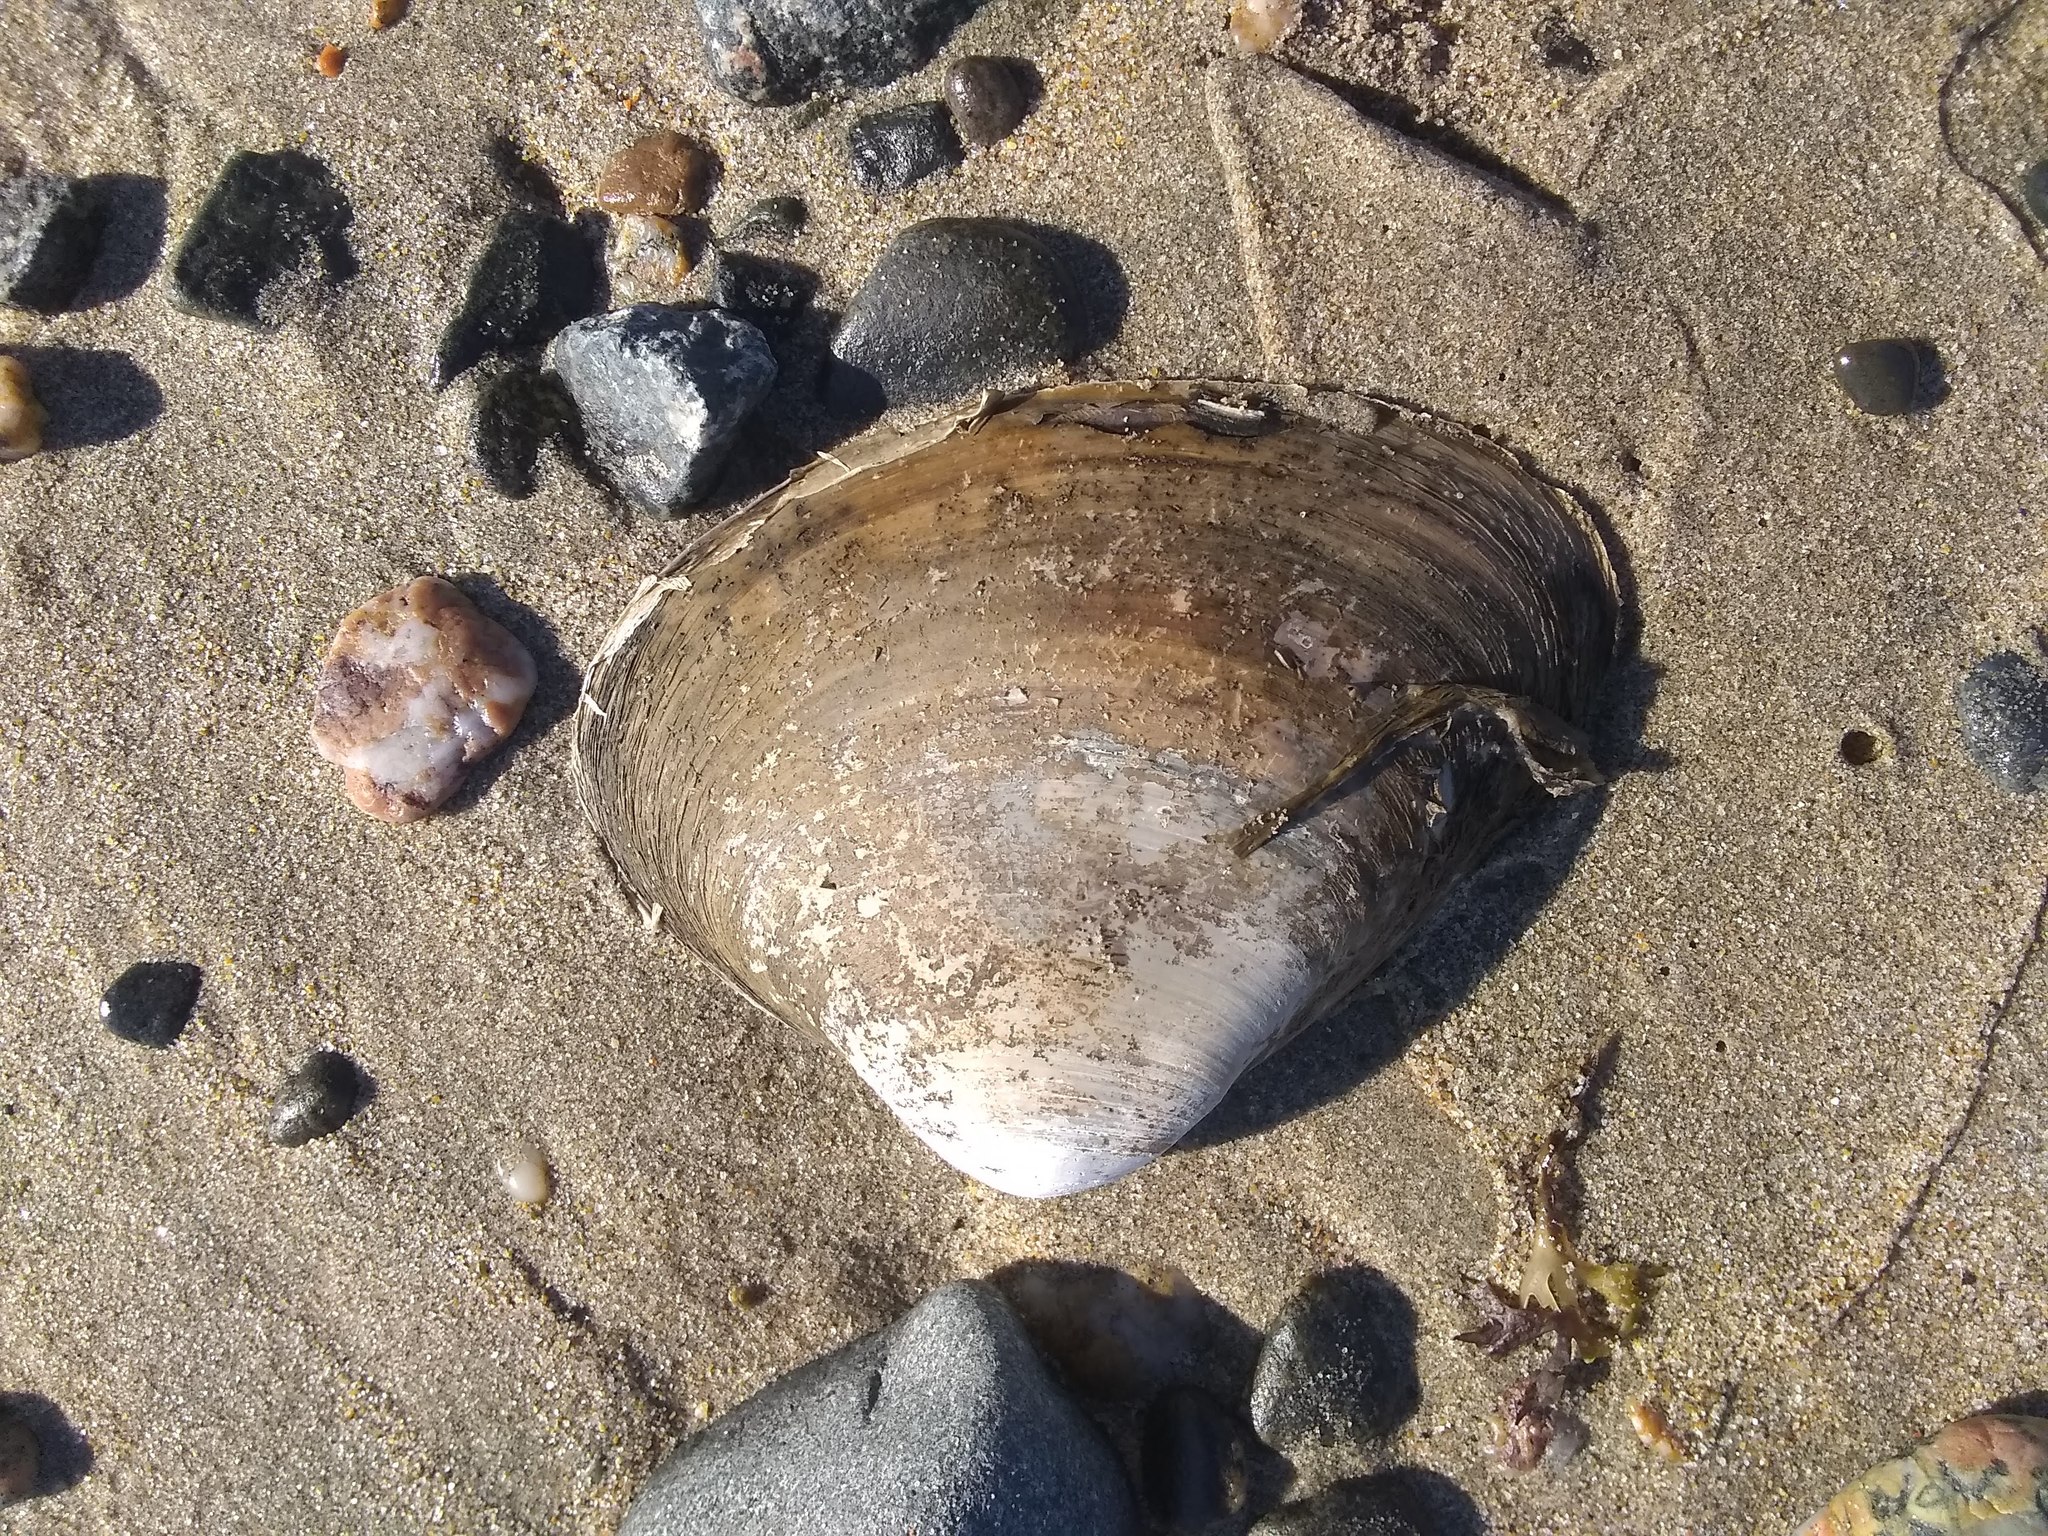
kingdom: Animalia
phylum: Mollusca
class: Bivalvia
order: Venerida
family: Mactridae
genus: Spisula
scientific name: Spisula solidissima
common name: Atlantic surf clam
